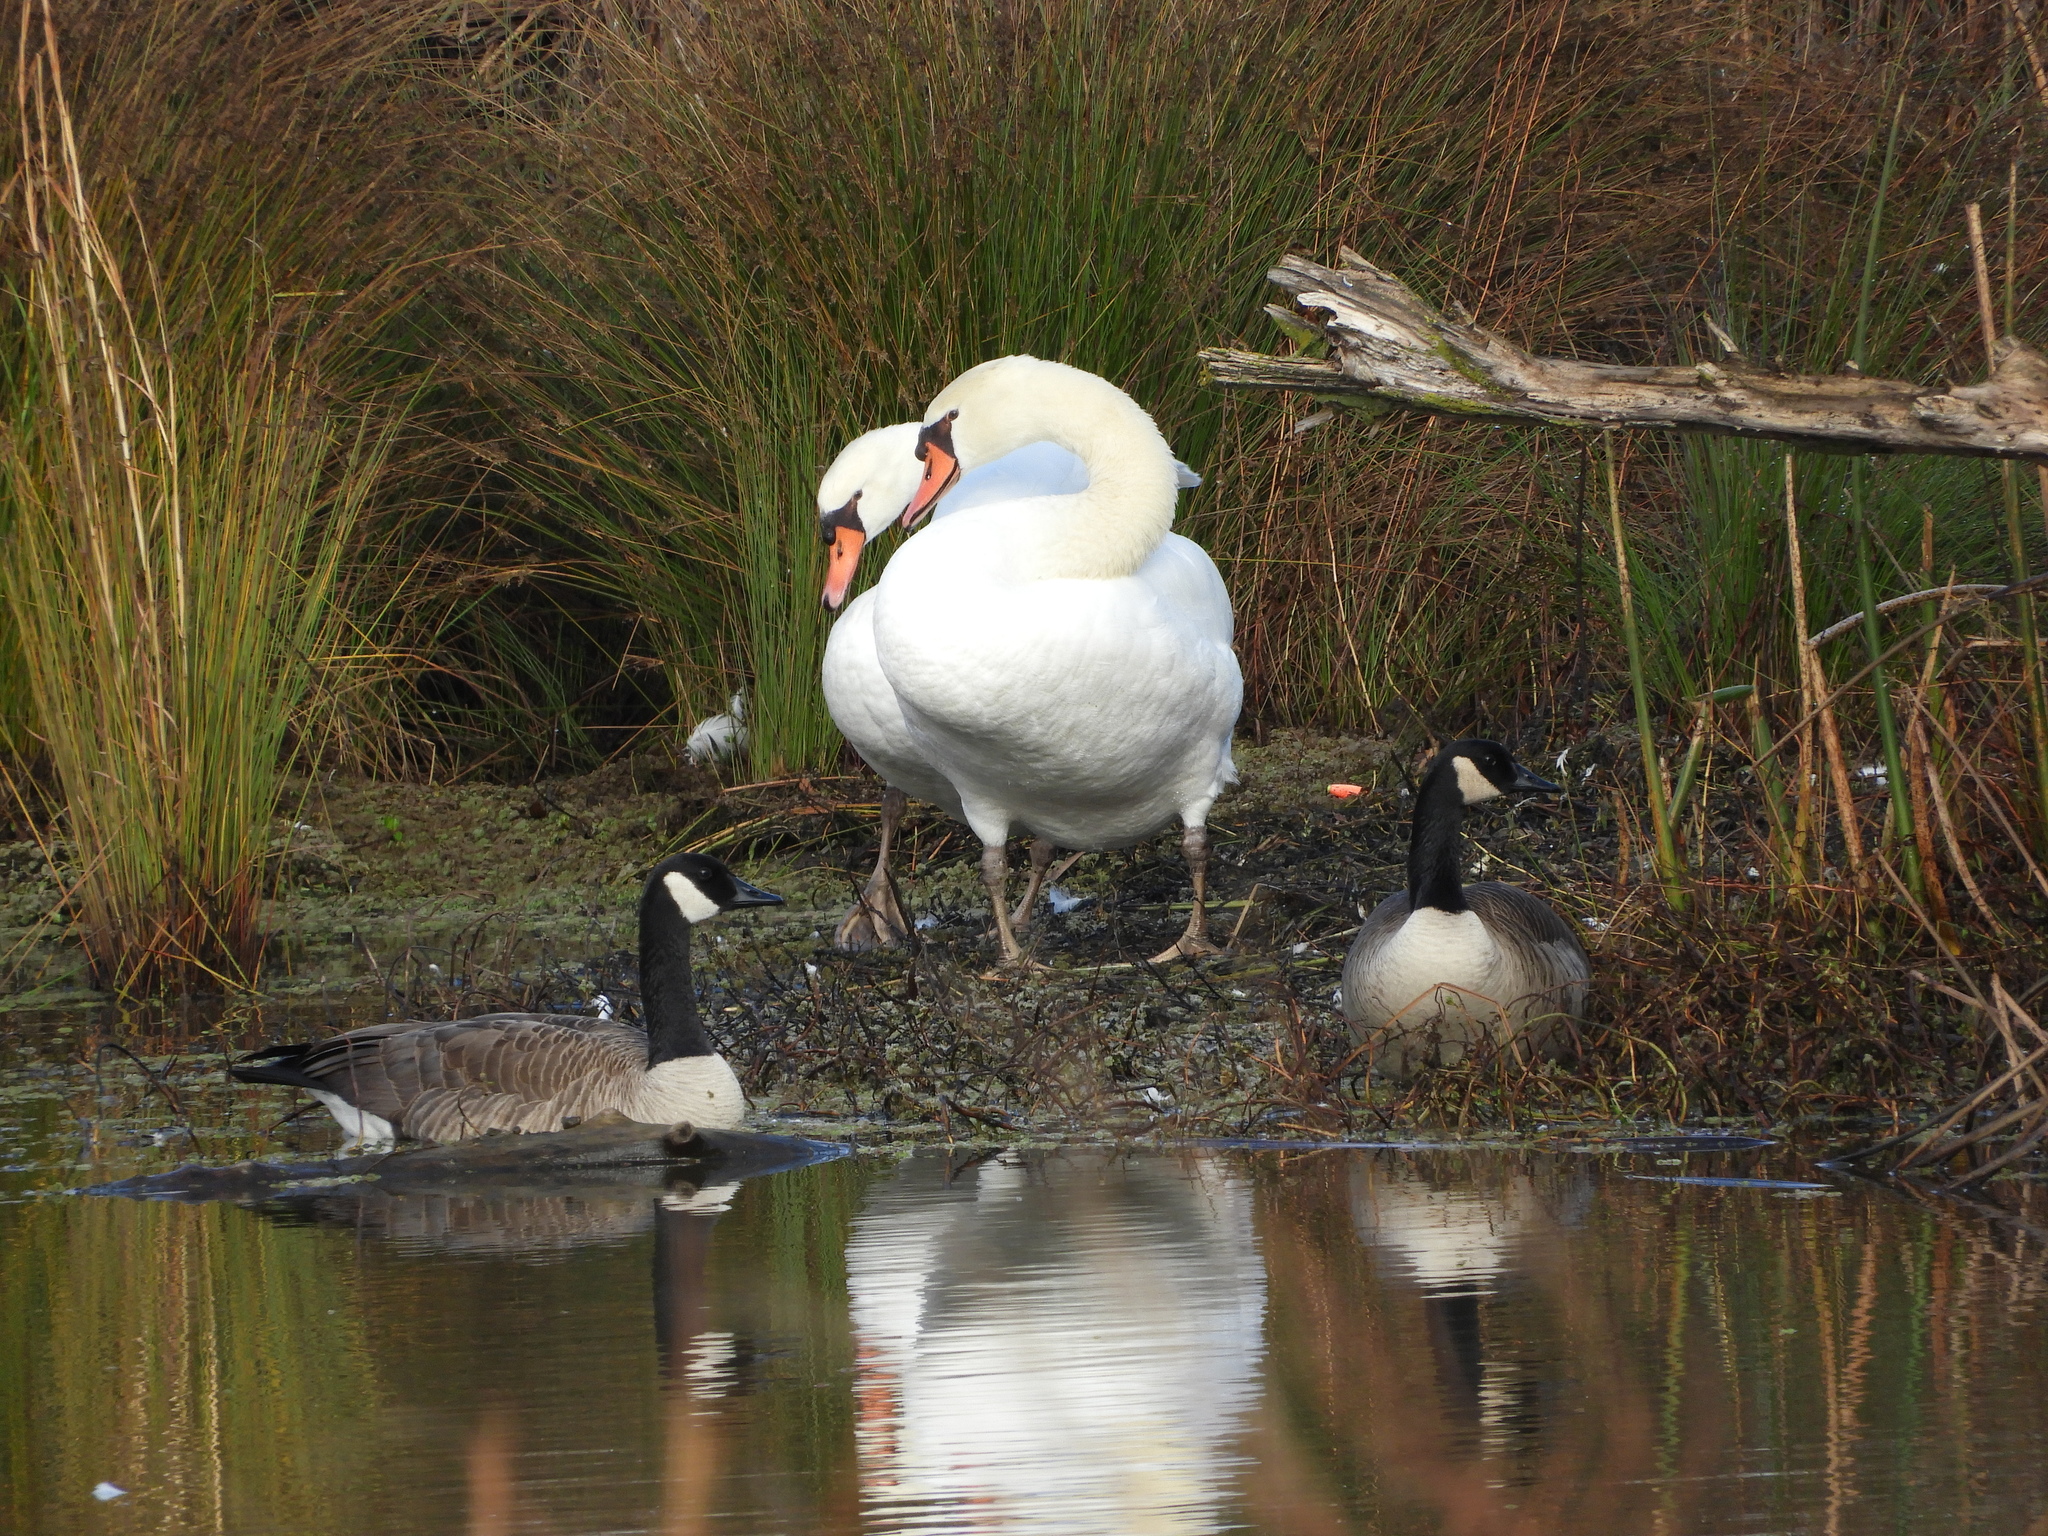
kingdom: Animalia
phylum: Chordata
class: Aves
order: Anseriformes
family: Anatidae
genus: Cygnus
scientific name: Cygnus olor
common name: Mute swan
